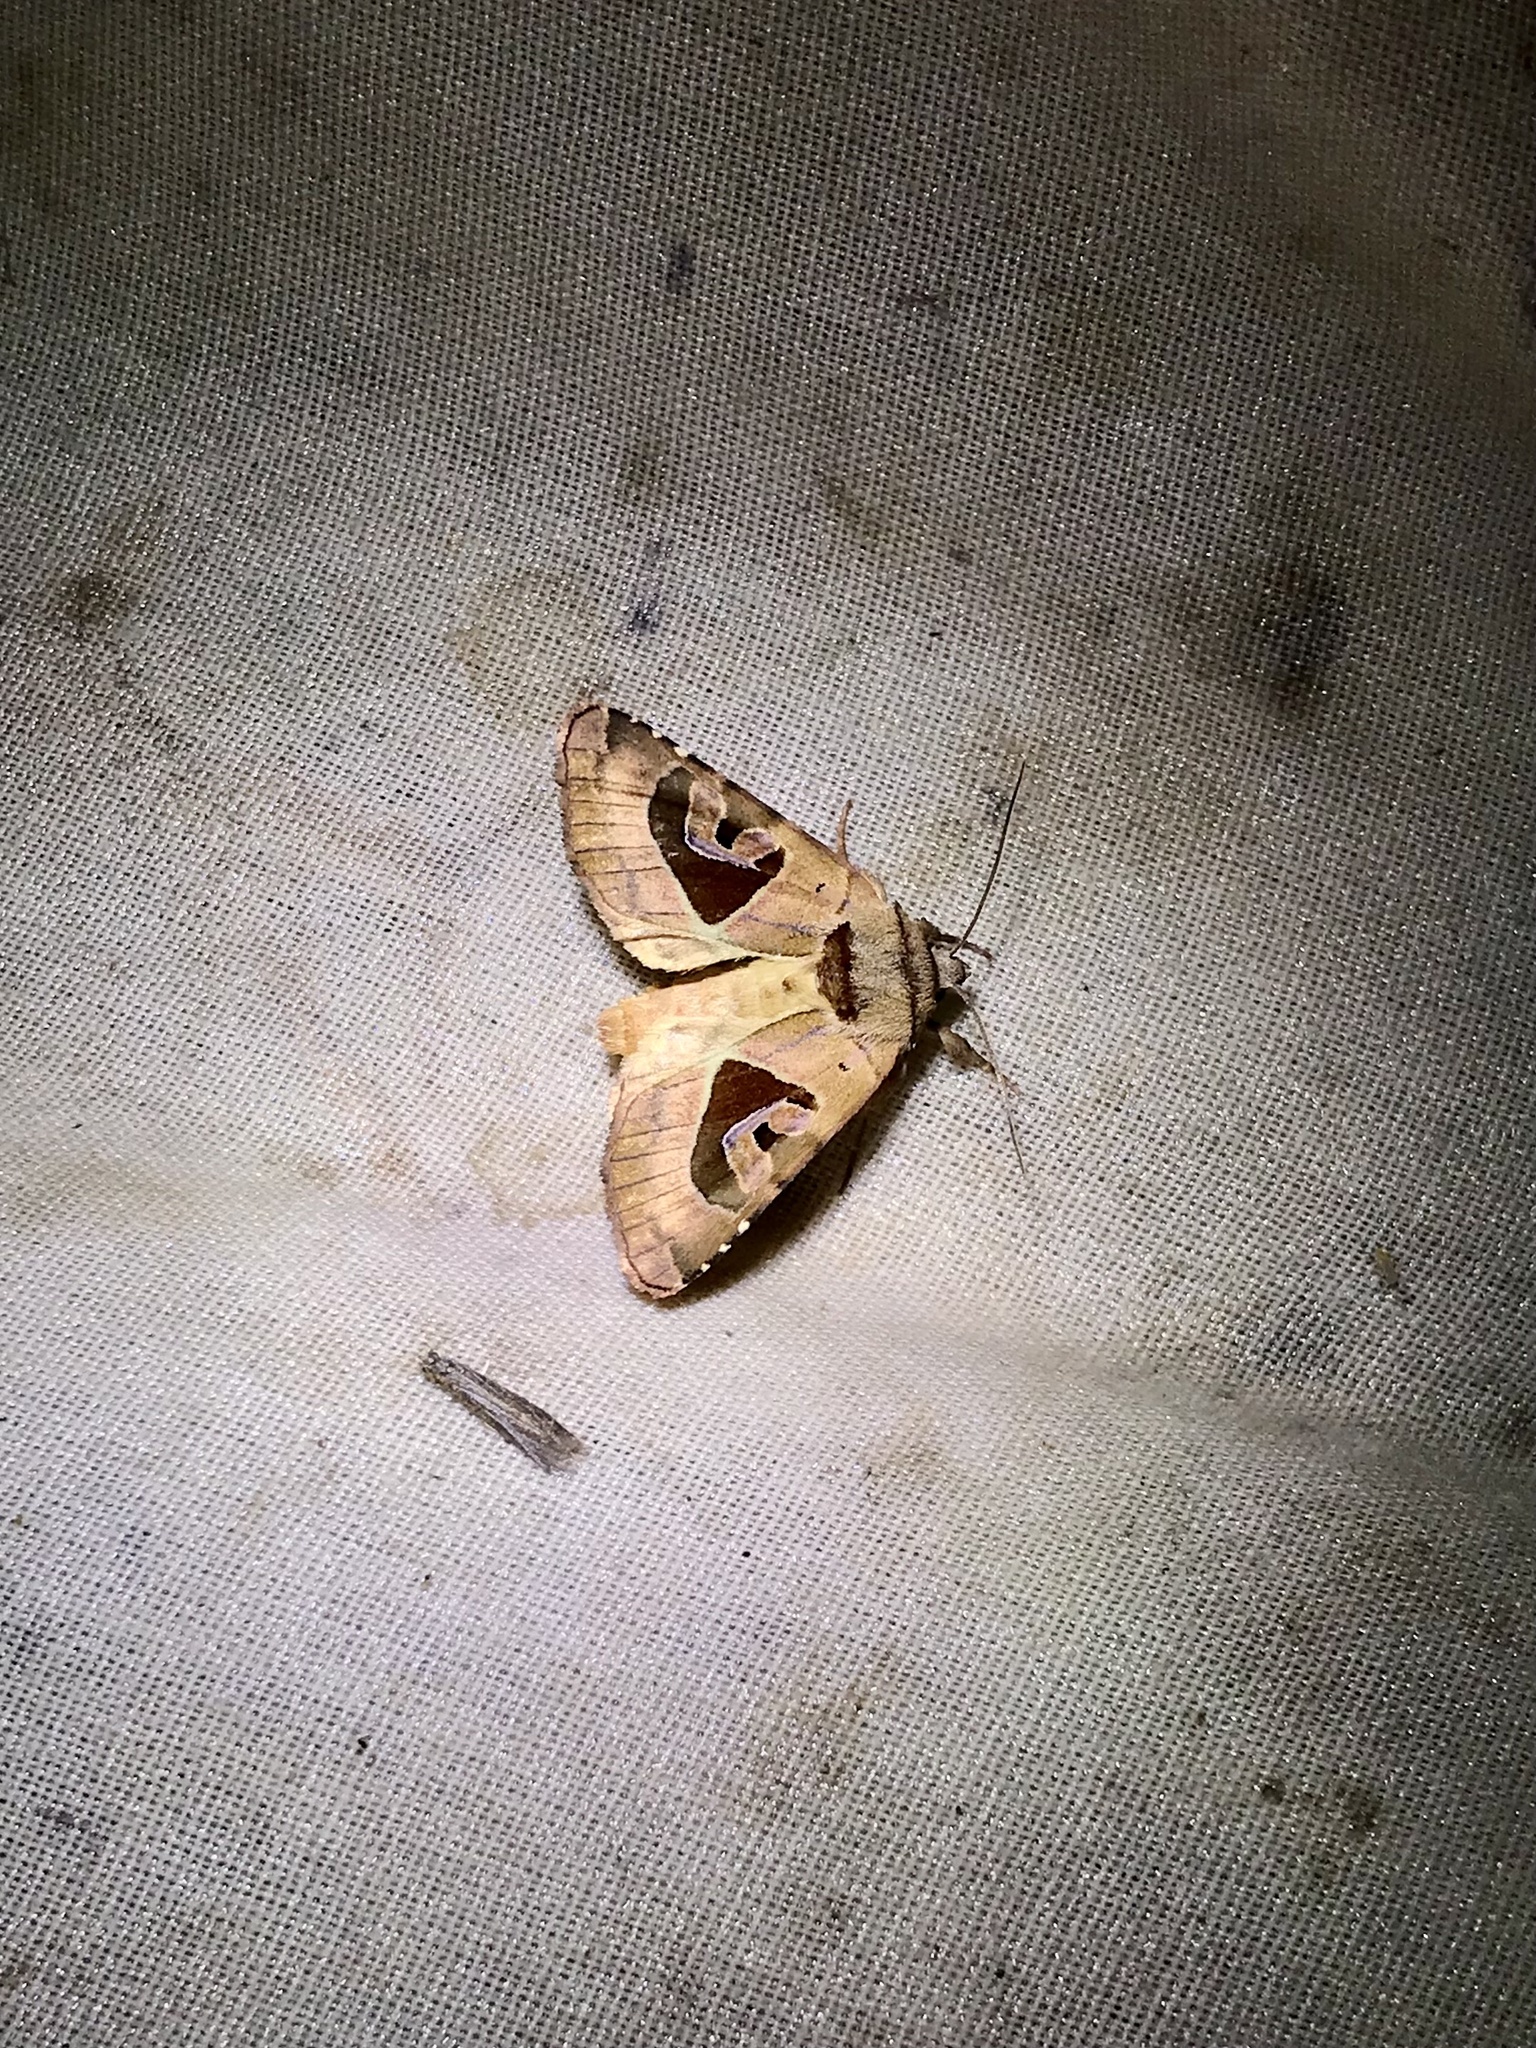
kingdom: Animalia
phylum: Arthropoda
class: Insecta
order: Lepidoptera
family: Noctuidae
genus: Conservula
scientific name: Conservula anodonta
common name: Sharp angle shades
